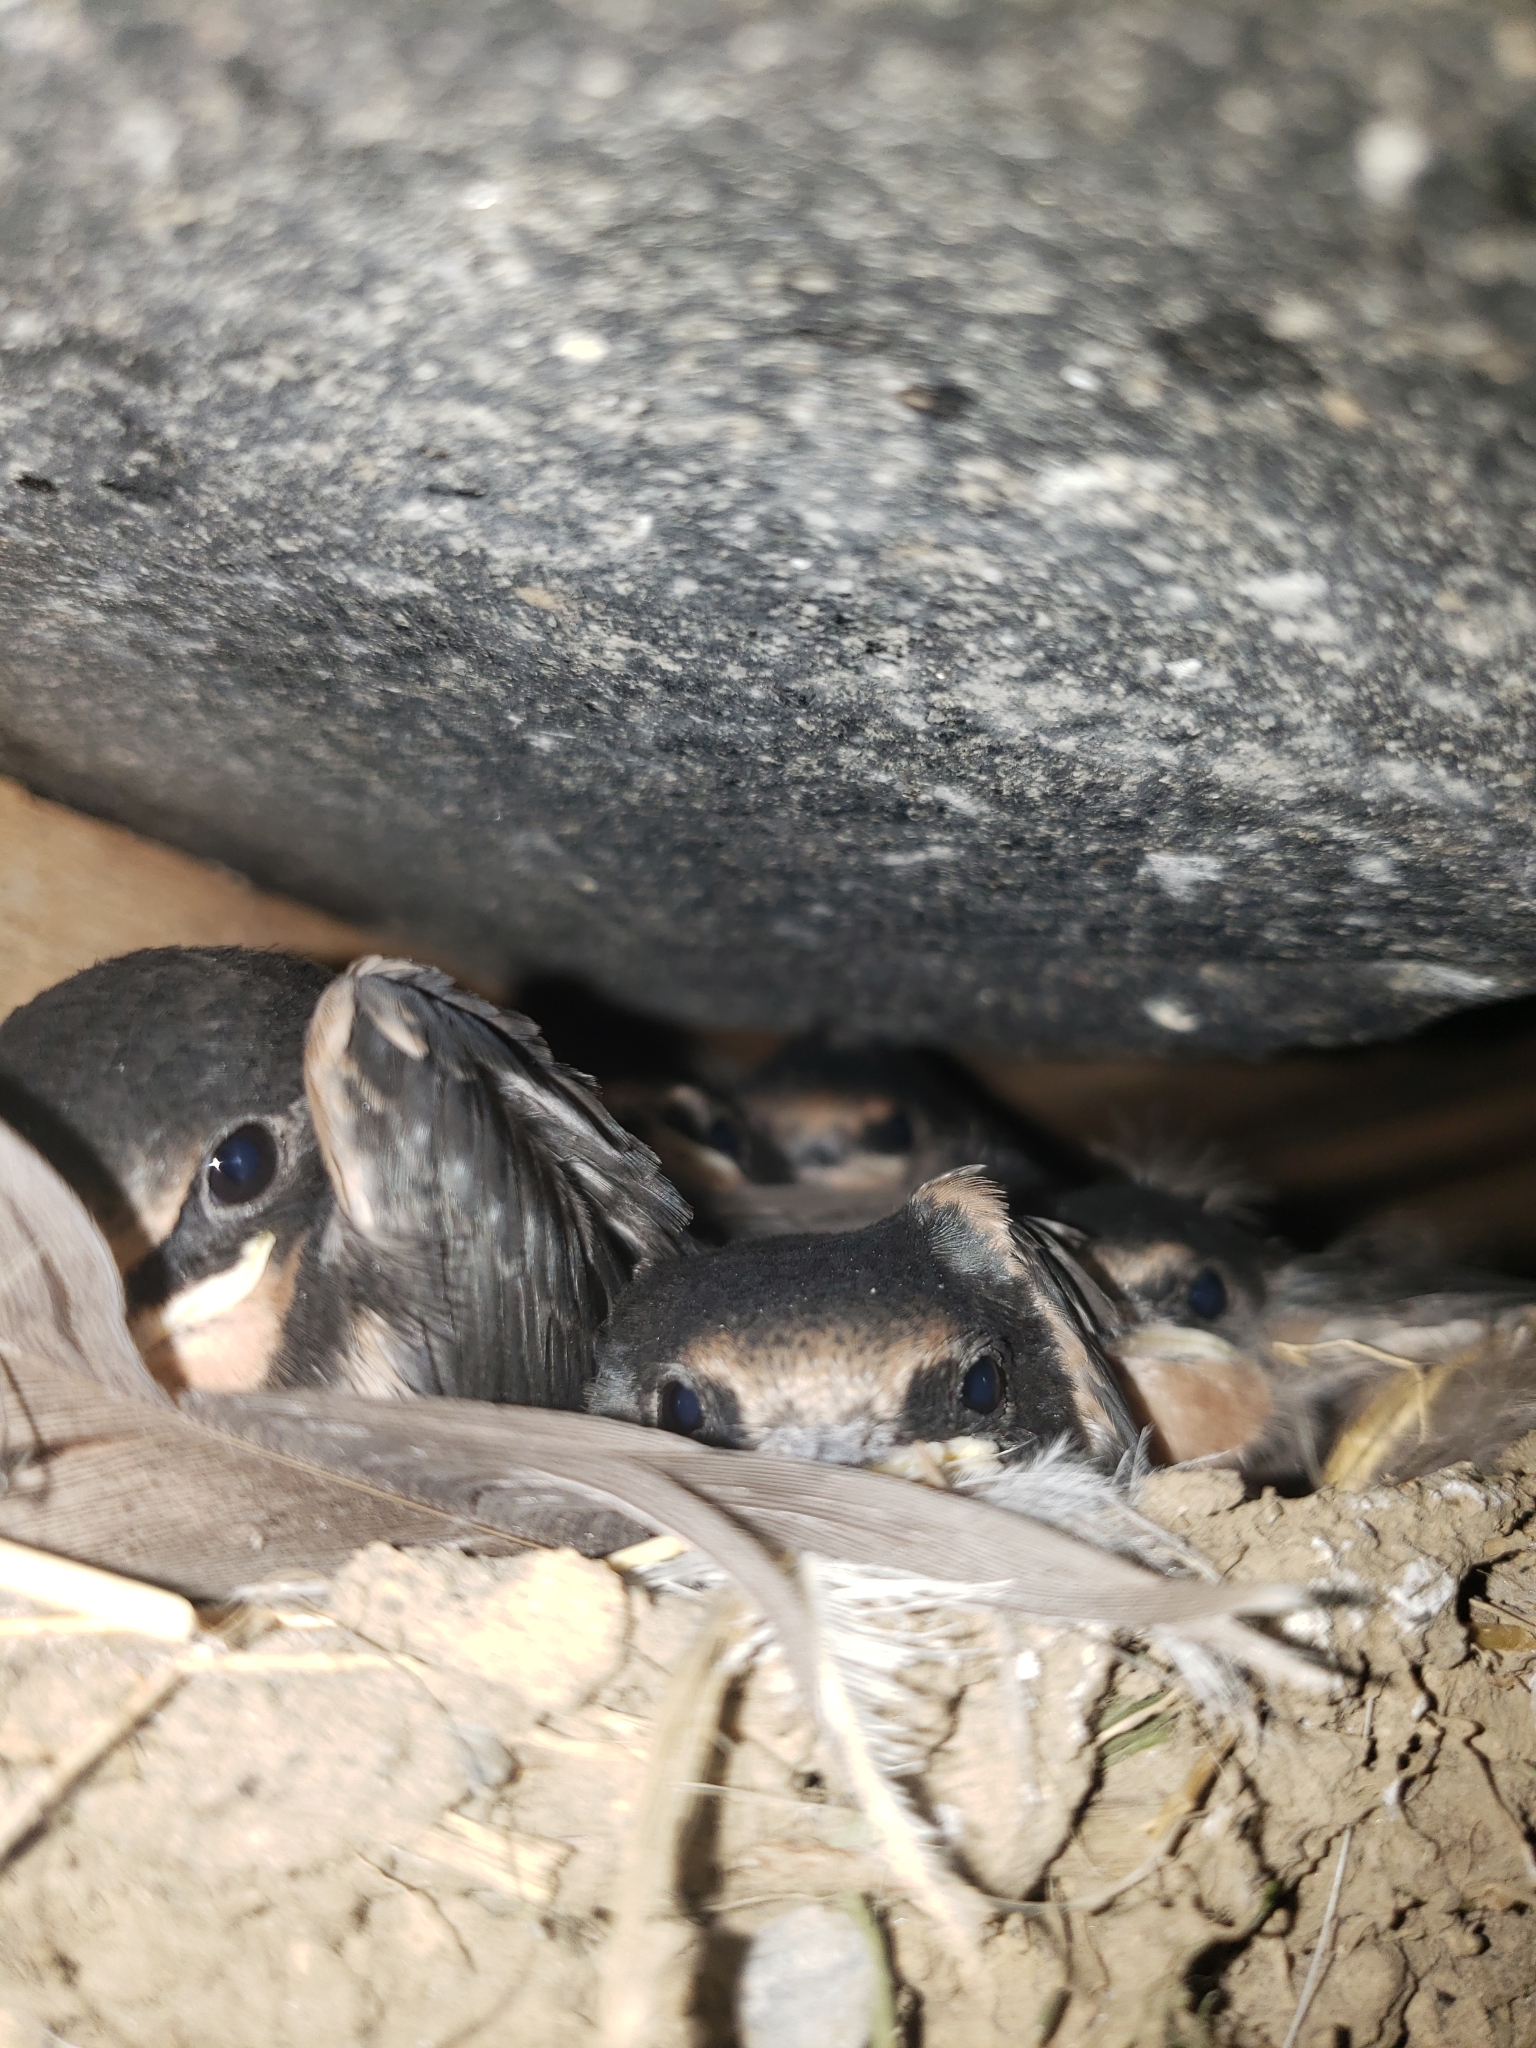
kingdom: Animalia
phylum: Chordata
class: Aves
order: Passeriformes
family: Hirundinidae
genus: Hirundo
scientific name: Hirundo rustica
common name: Barn swallow
